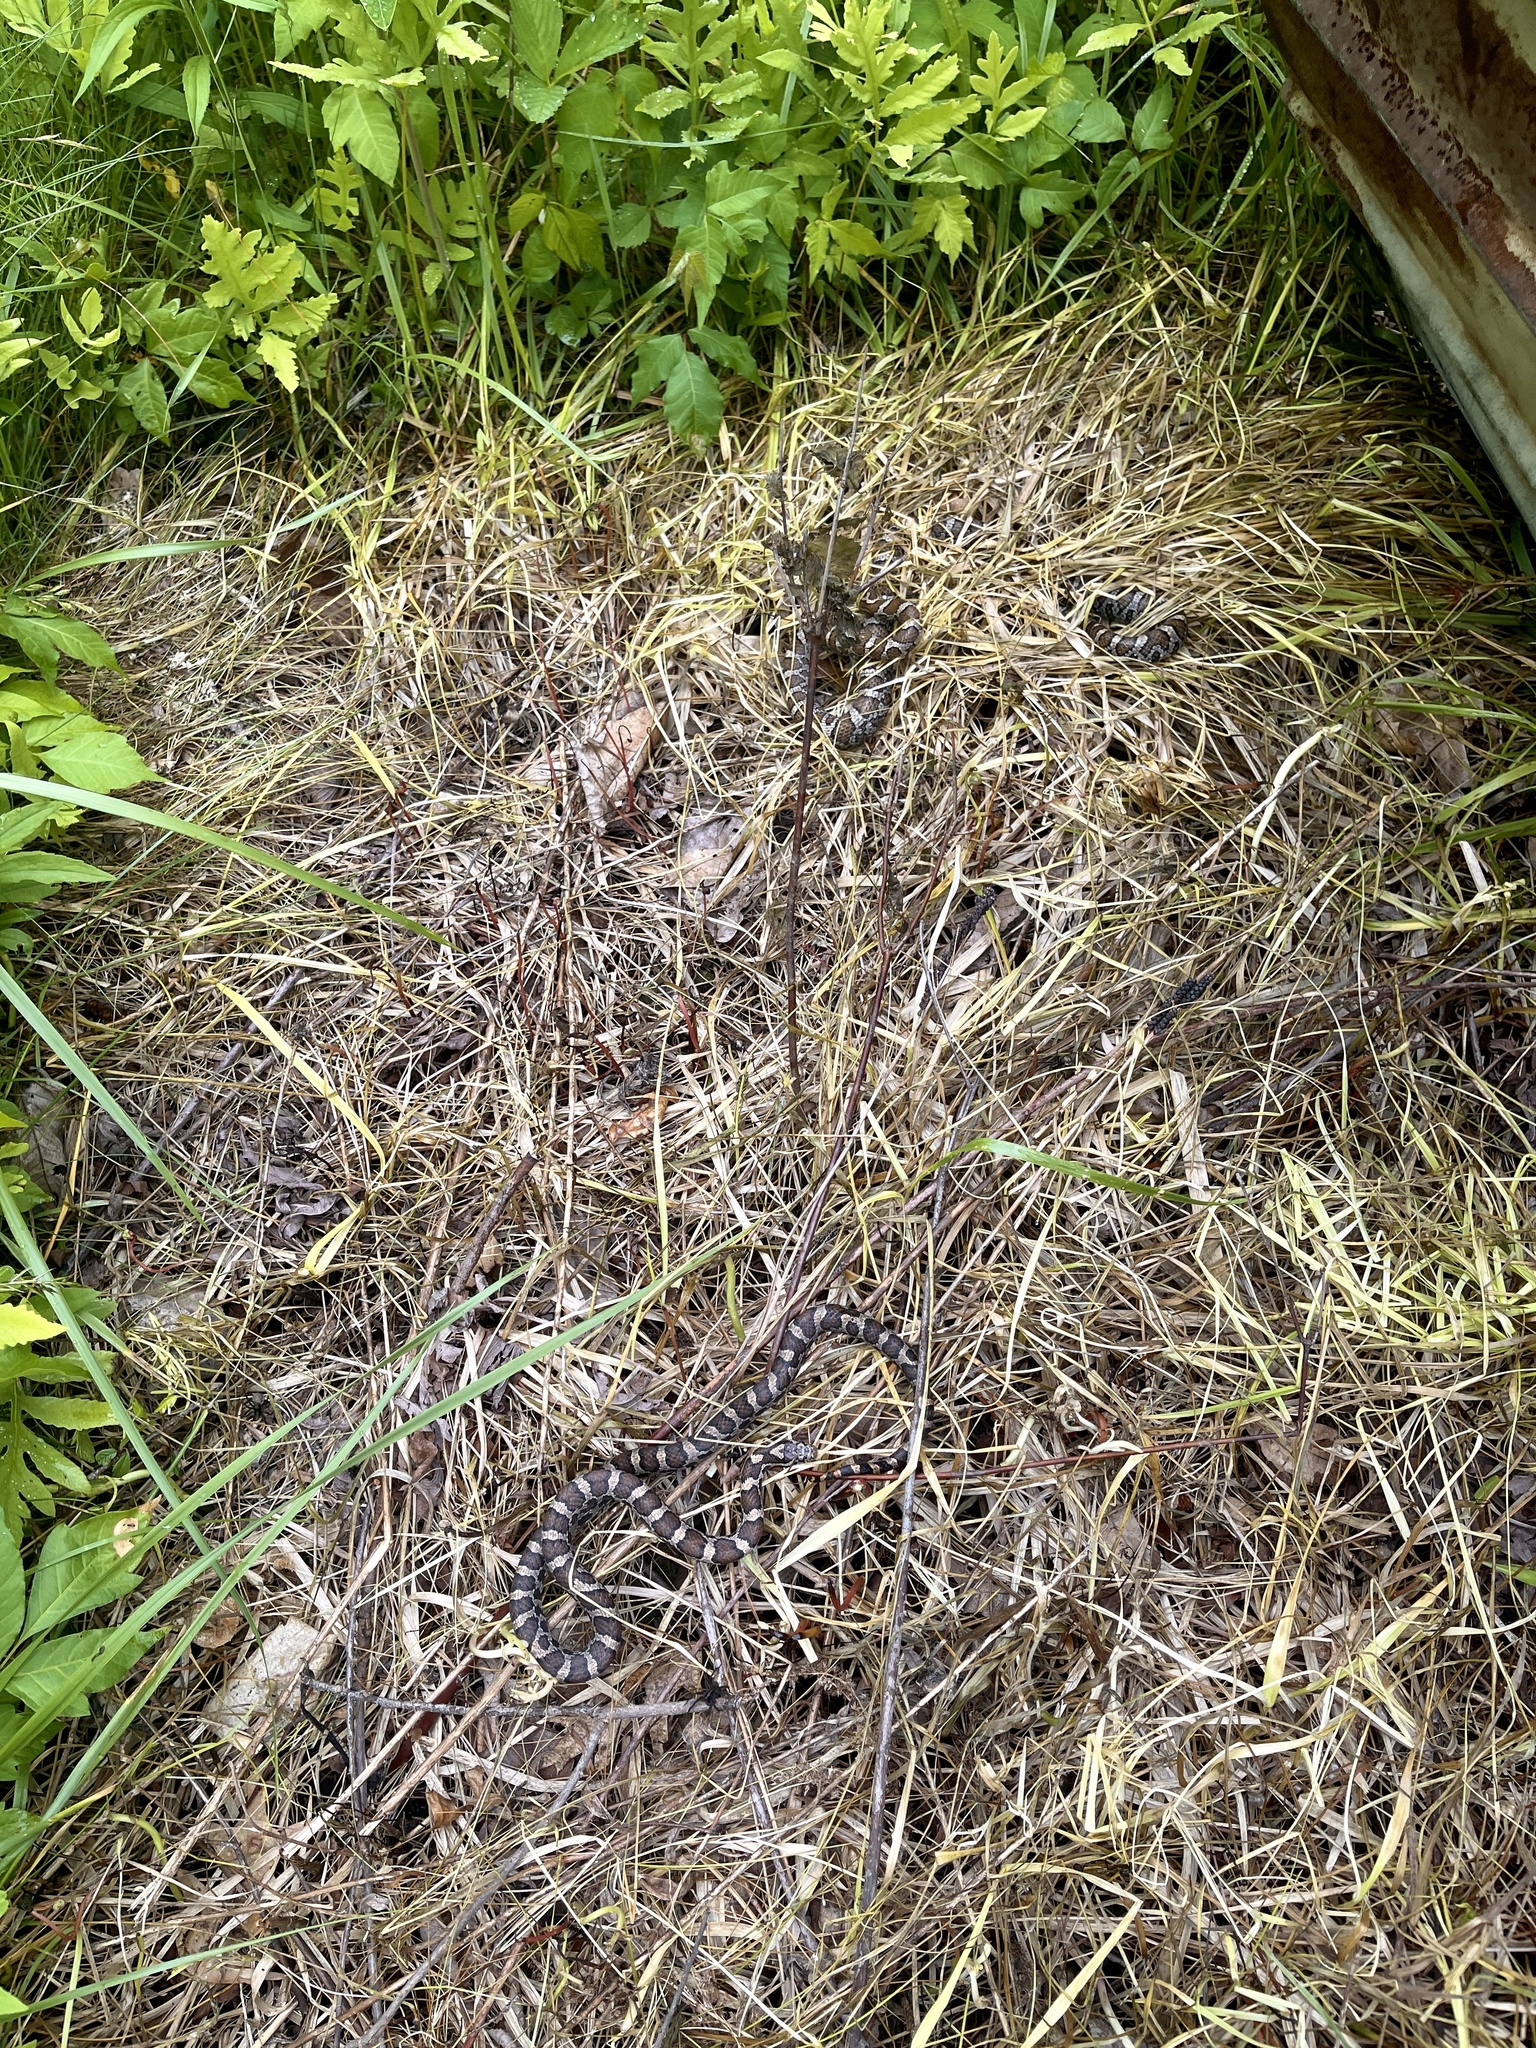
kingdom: Animalia
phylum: Chordata
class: Squamata
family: Colubridae
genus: Lampropeltis
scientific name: Lampropeltis triangulum
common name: Eastern milksnake
